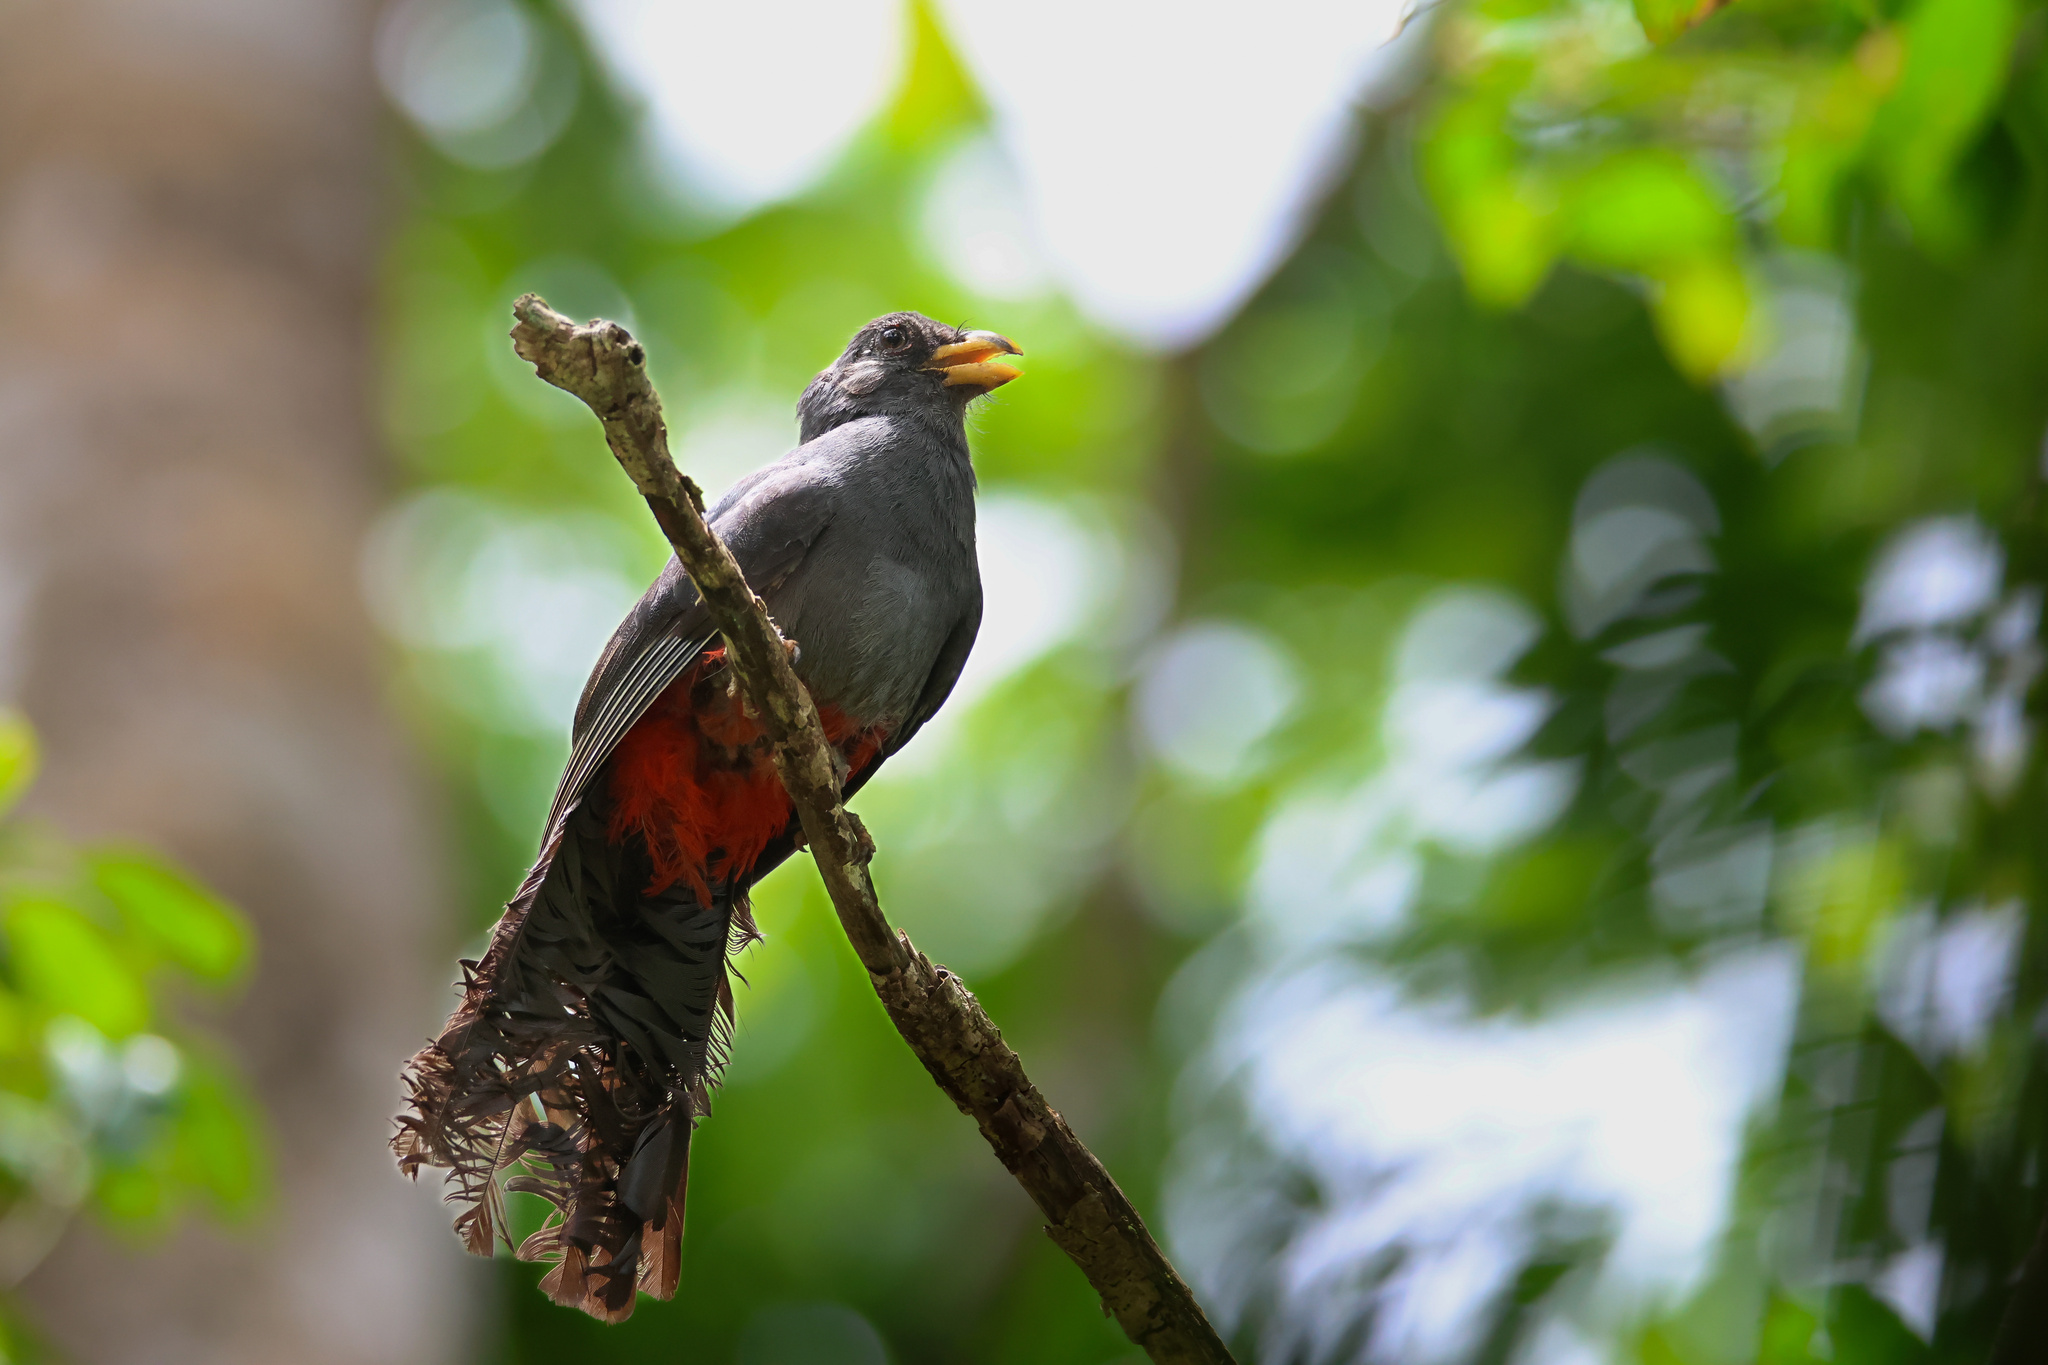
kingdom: Animalia
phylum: Chordata
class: Aves
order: Trogoniformes
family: Trogonidae
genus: Trogon
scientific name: Trogon melanurus
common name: Black-tailed trogon
